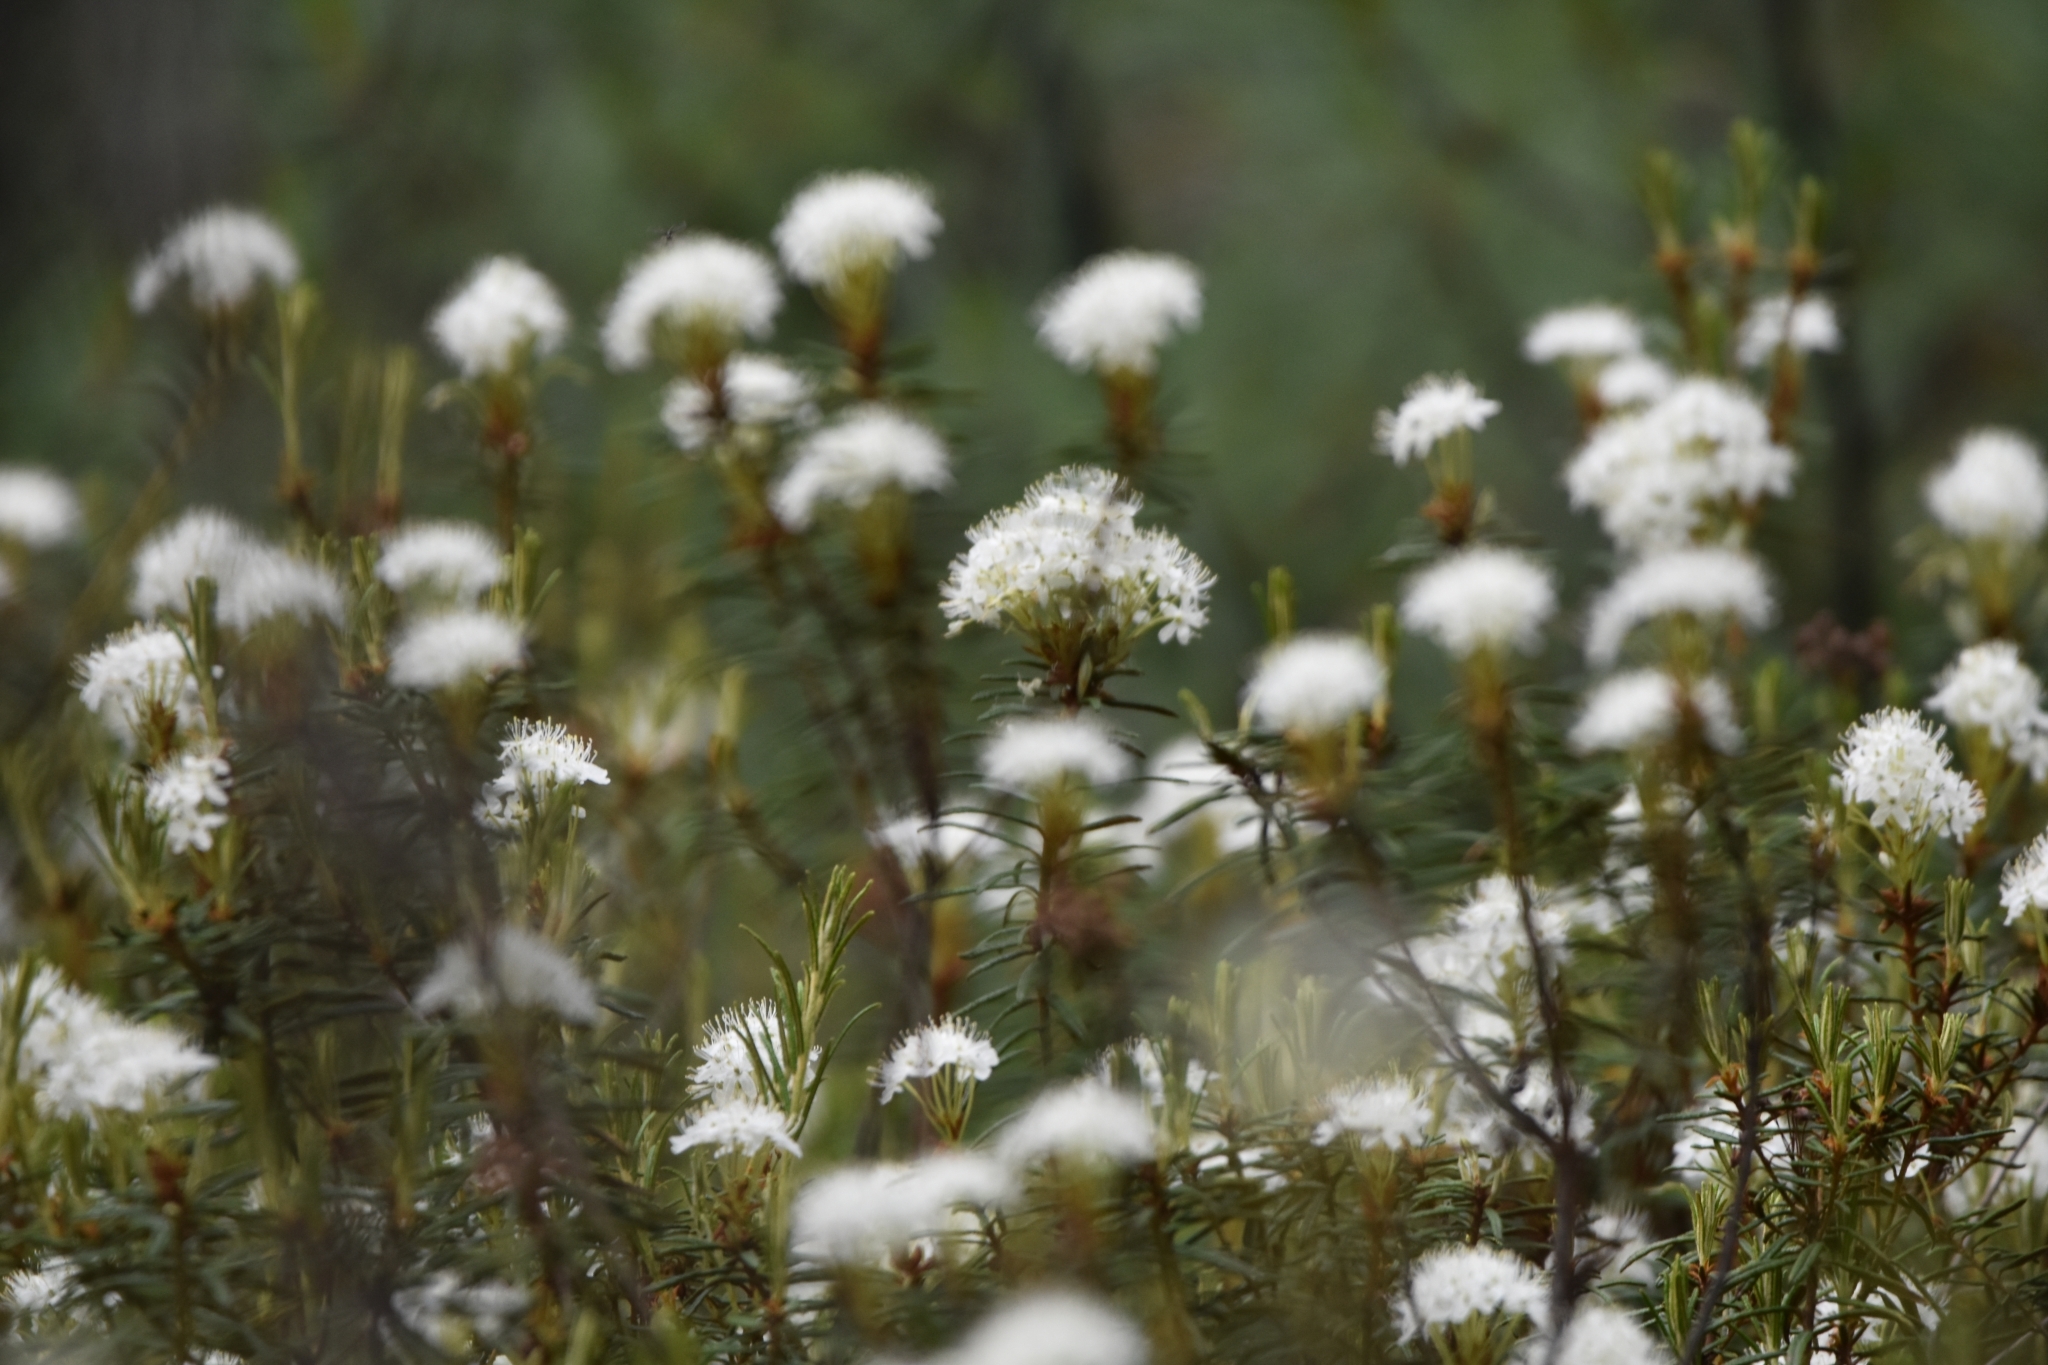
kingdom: Plantae
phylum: Tracheophyta
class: Magnoliopsida
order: Ericales
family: Ericaceae
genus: Rhododendron
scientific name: Rhododendron tomentosum
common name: Marsh labrador tea
